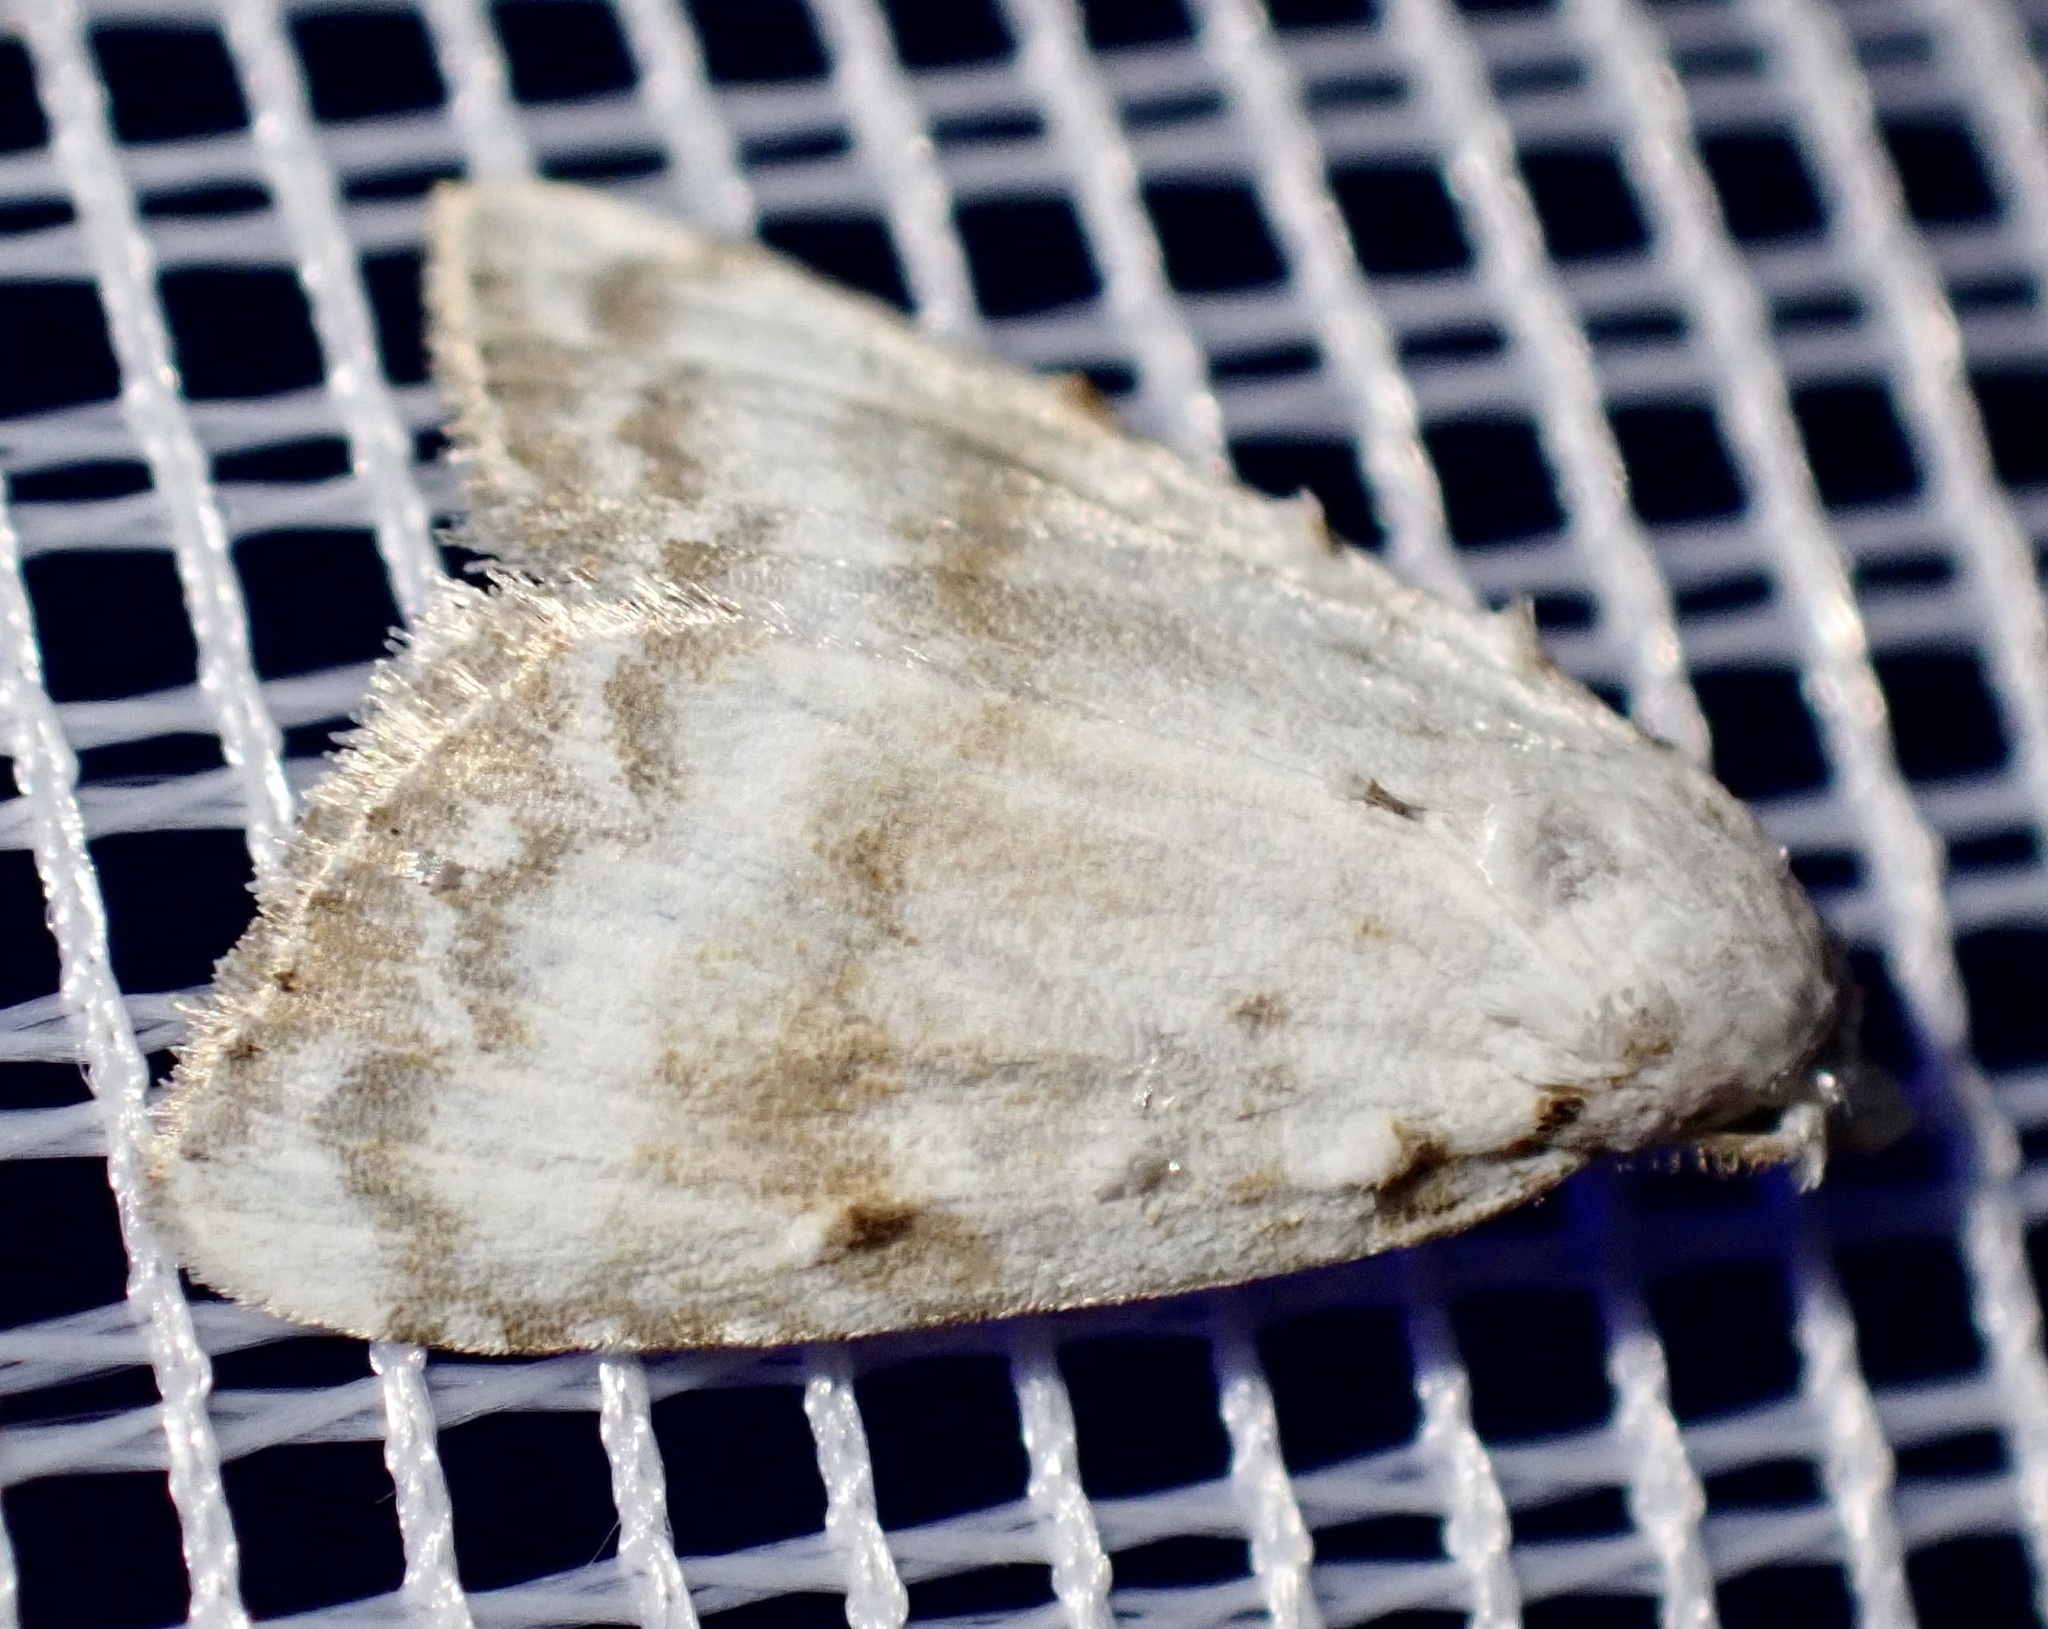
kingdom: Animalia
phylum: Arthropoda
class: Insecta
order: Lepidoptera
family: Nolidae
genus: Meganola
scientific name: Meganola albula
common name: Kent black arches
